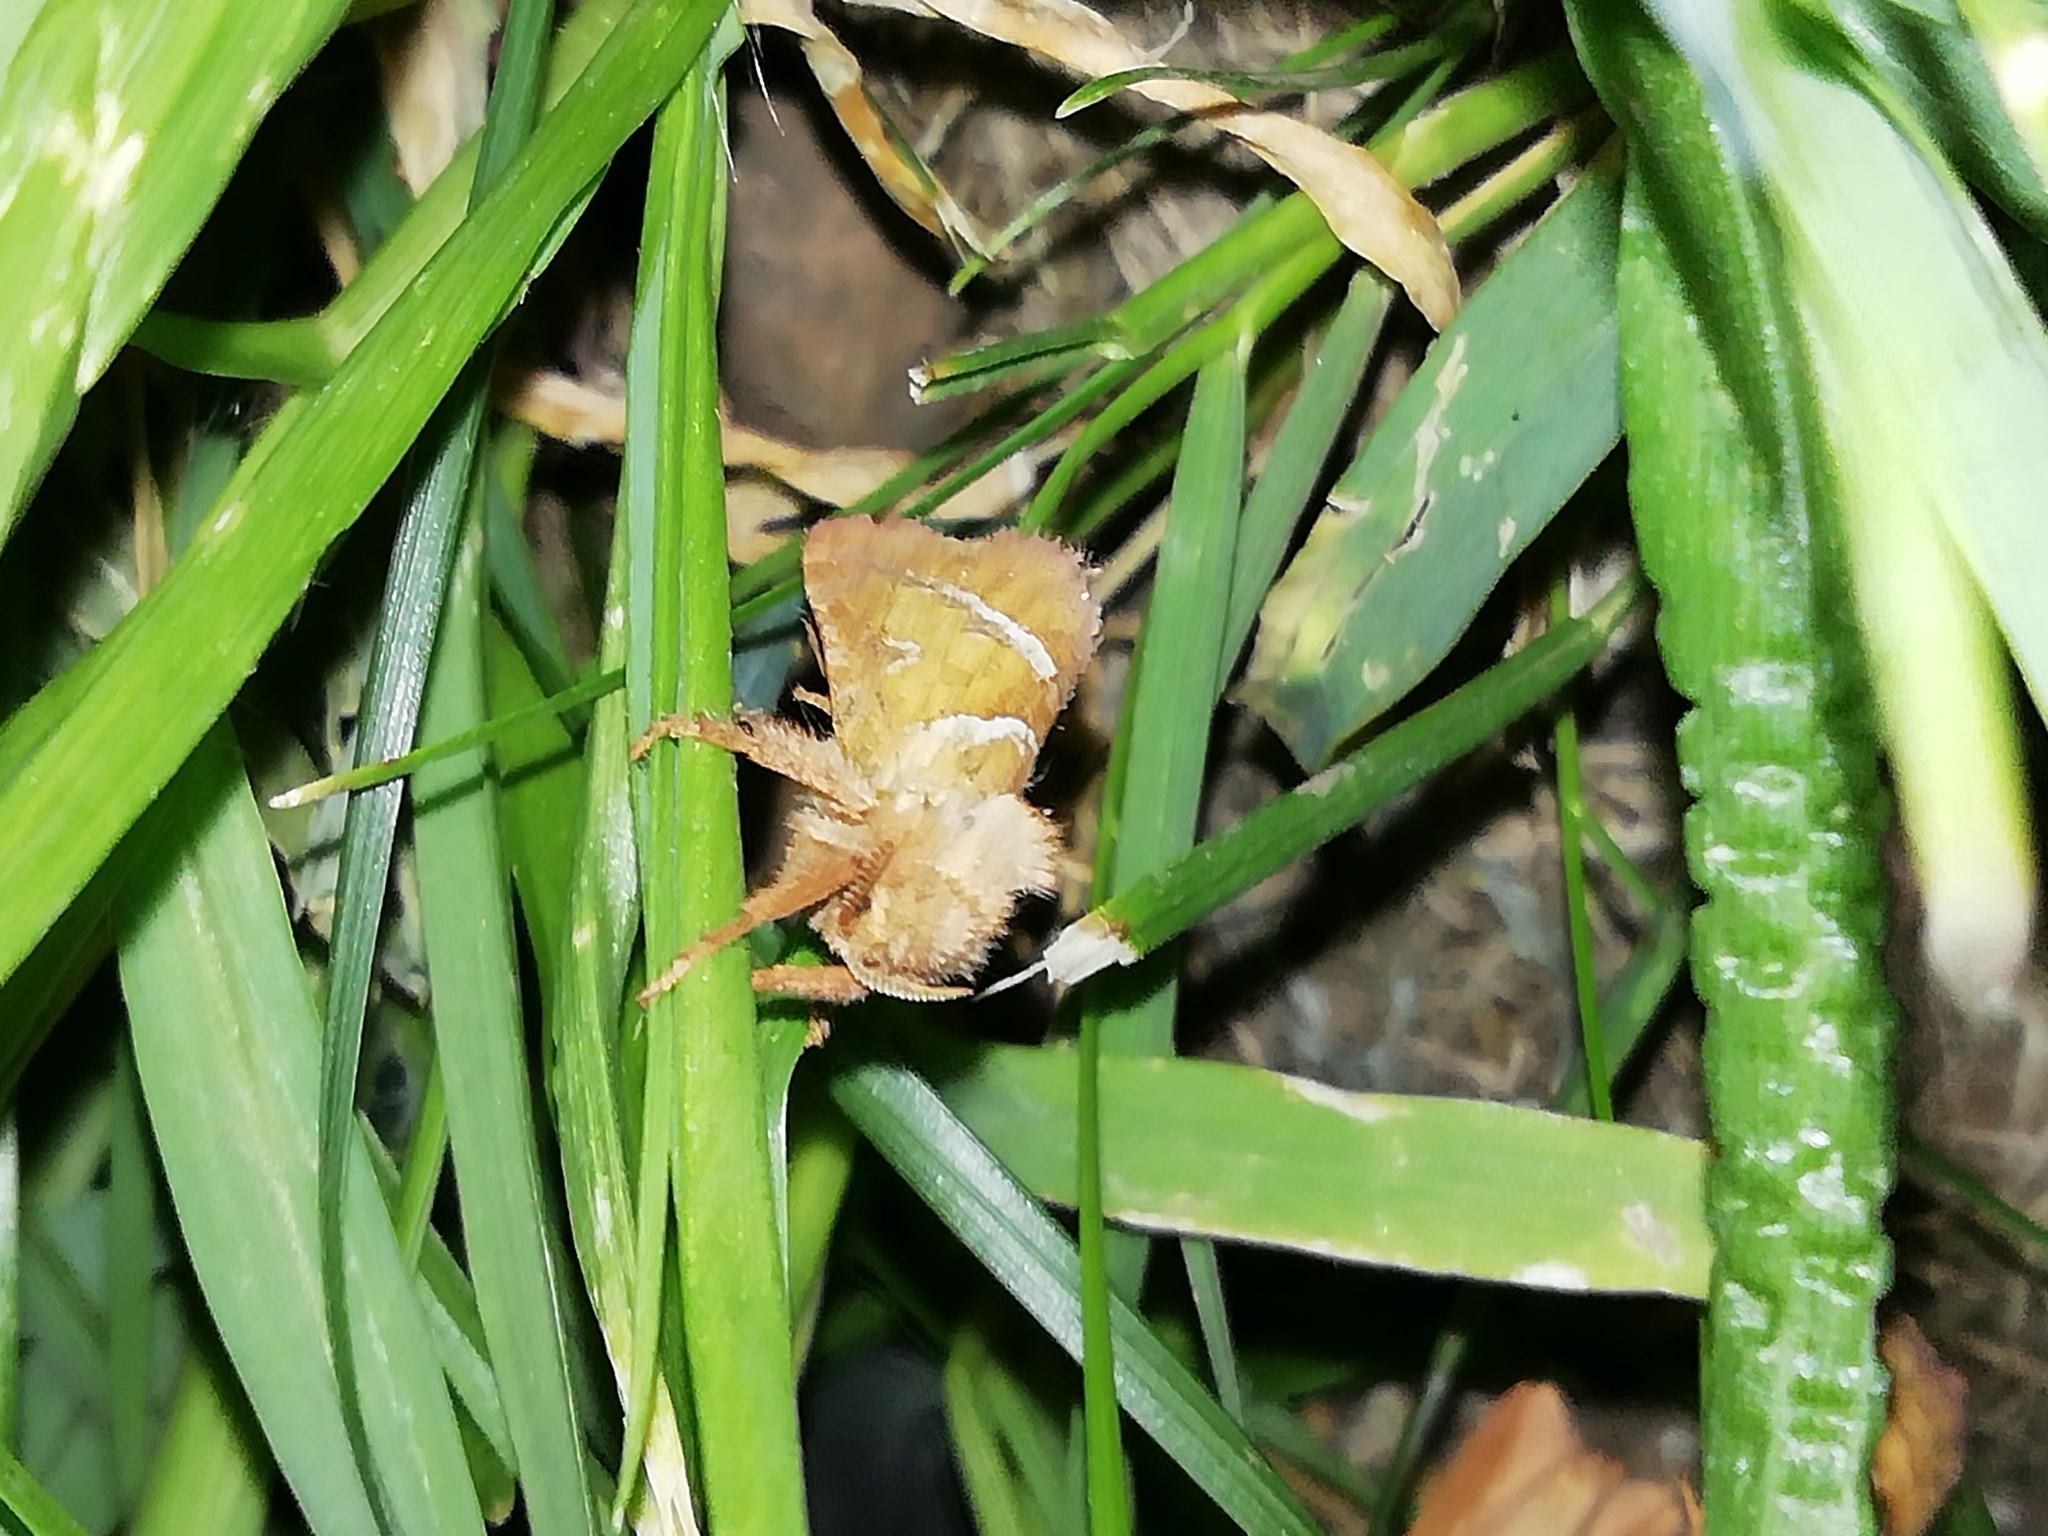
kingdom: Animalia
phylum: Arthropoda
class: Insecta
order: Lepidoptera
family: Hepialidae
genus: Triodia
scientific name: Triodia sylvina
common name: Orange swift
